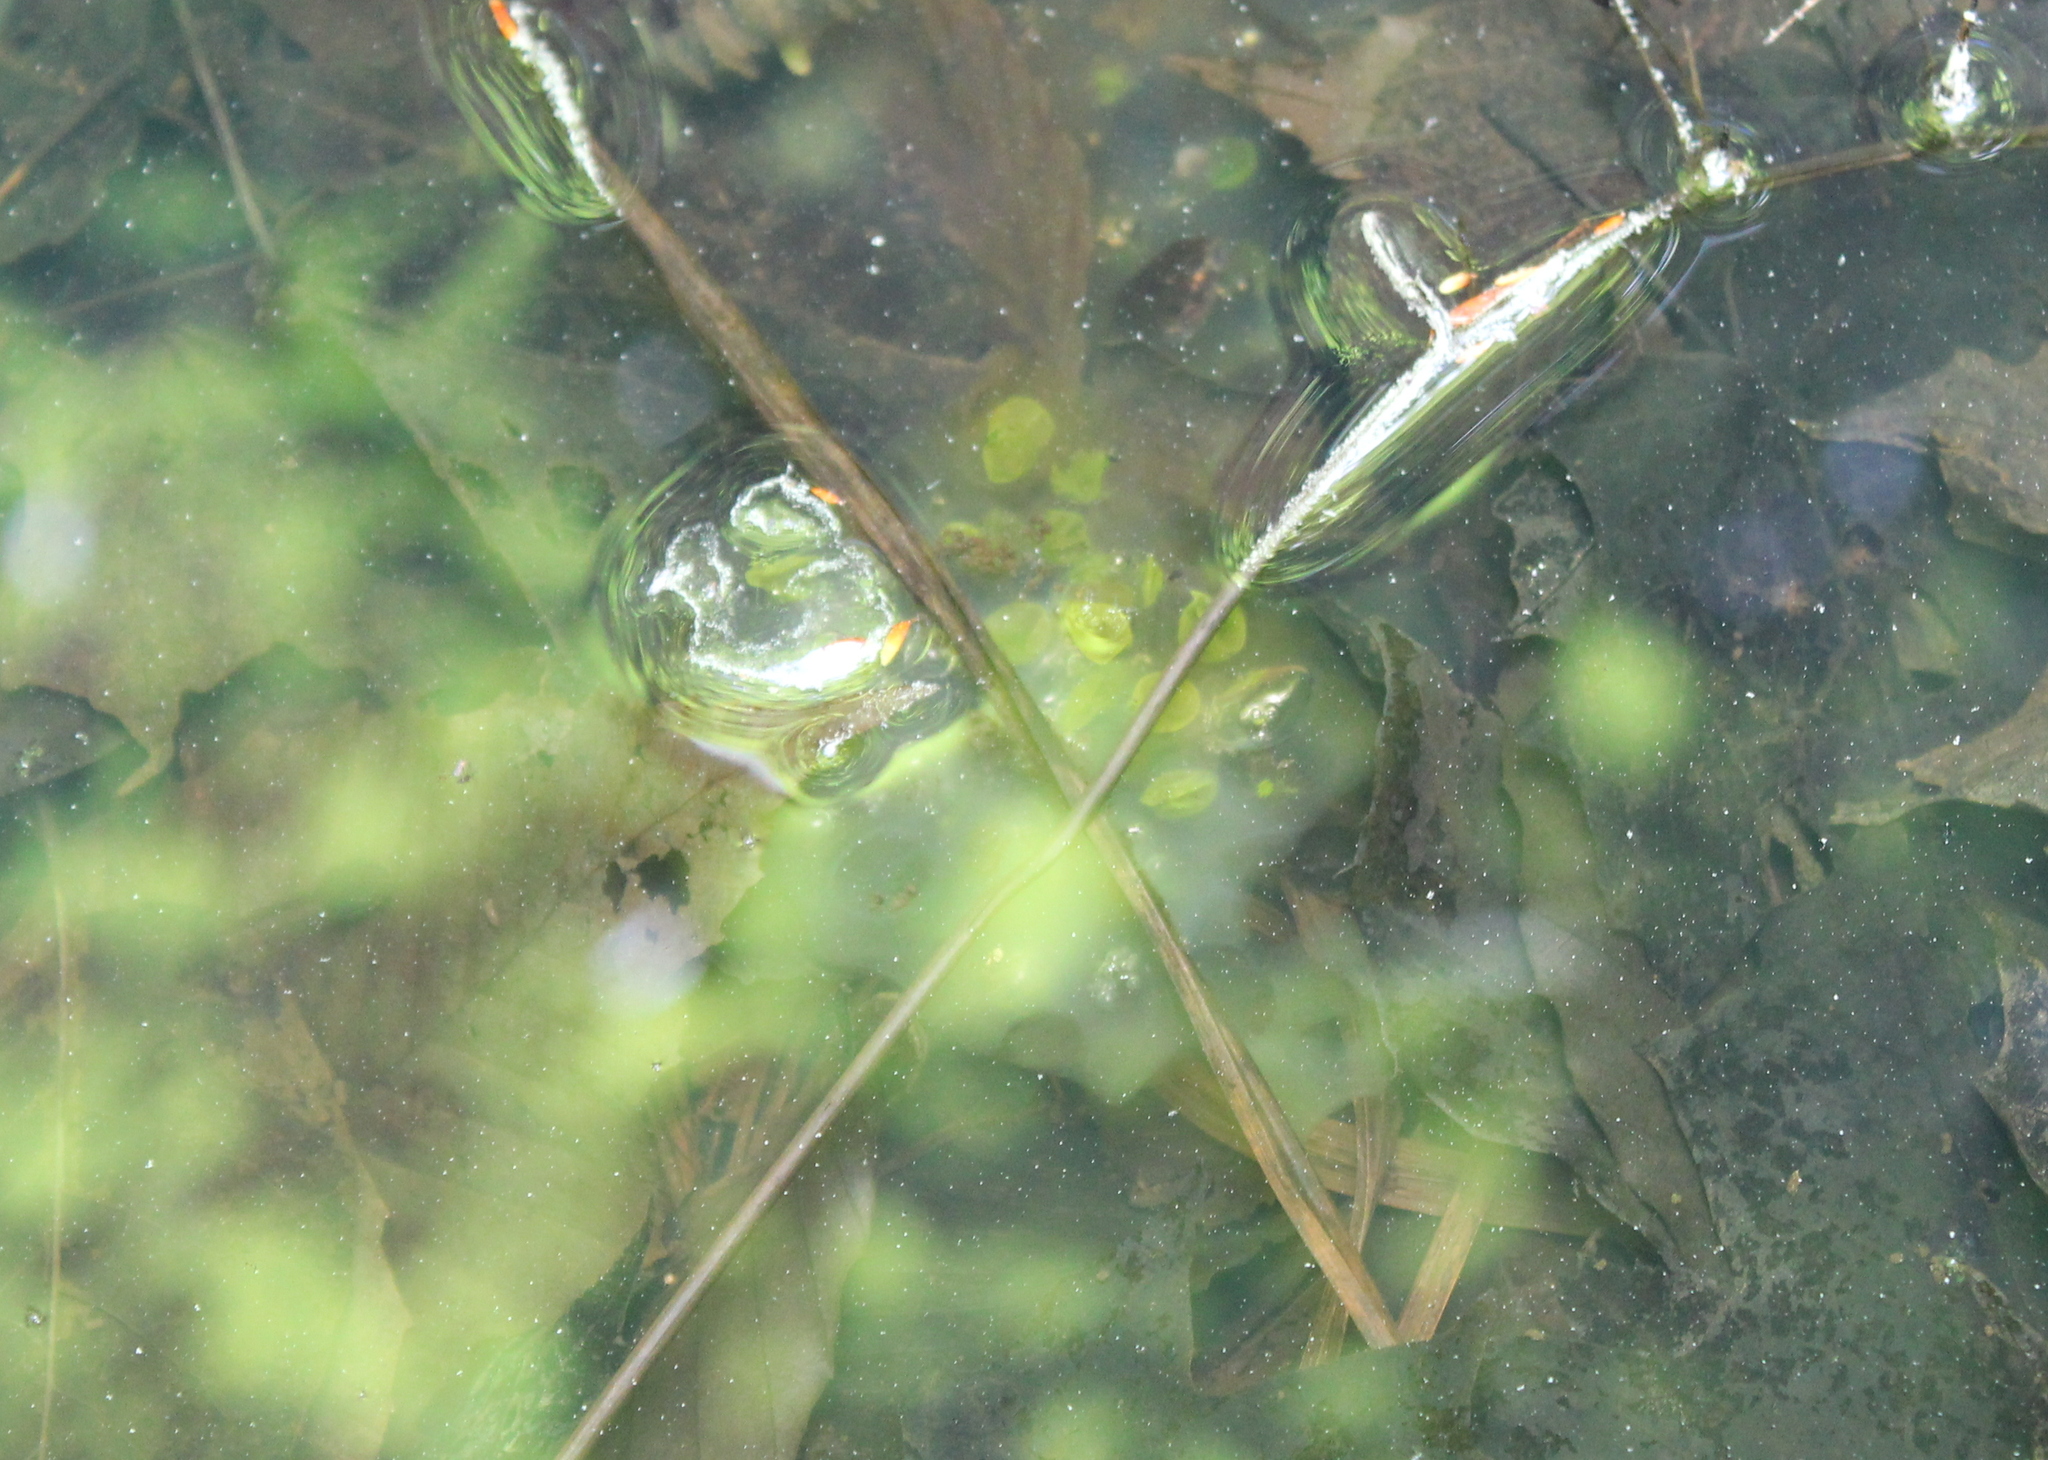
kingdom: Animalia
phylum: Chordata
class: Amphibia
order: Caudata
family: Ambystomatidae
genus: Ambystoma
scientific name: Ambystoma maculatum
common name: Spotted salamander
